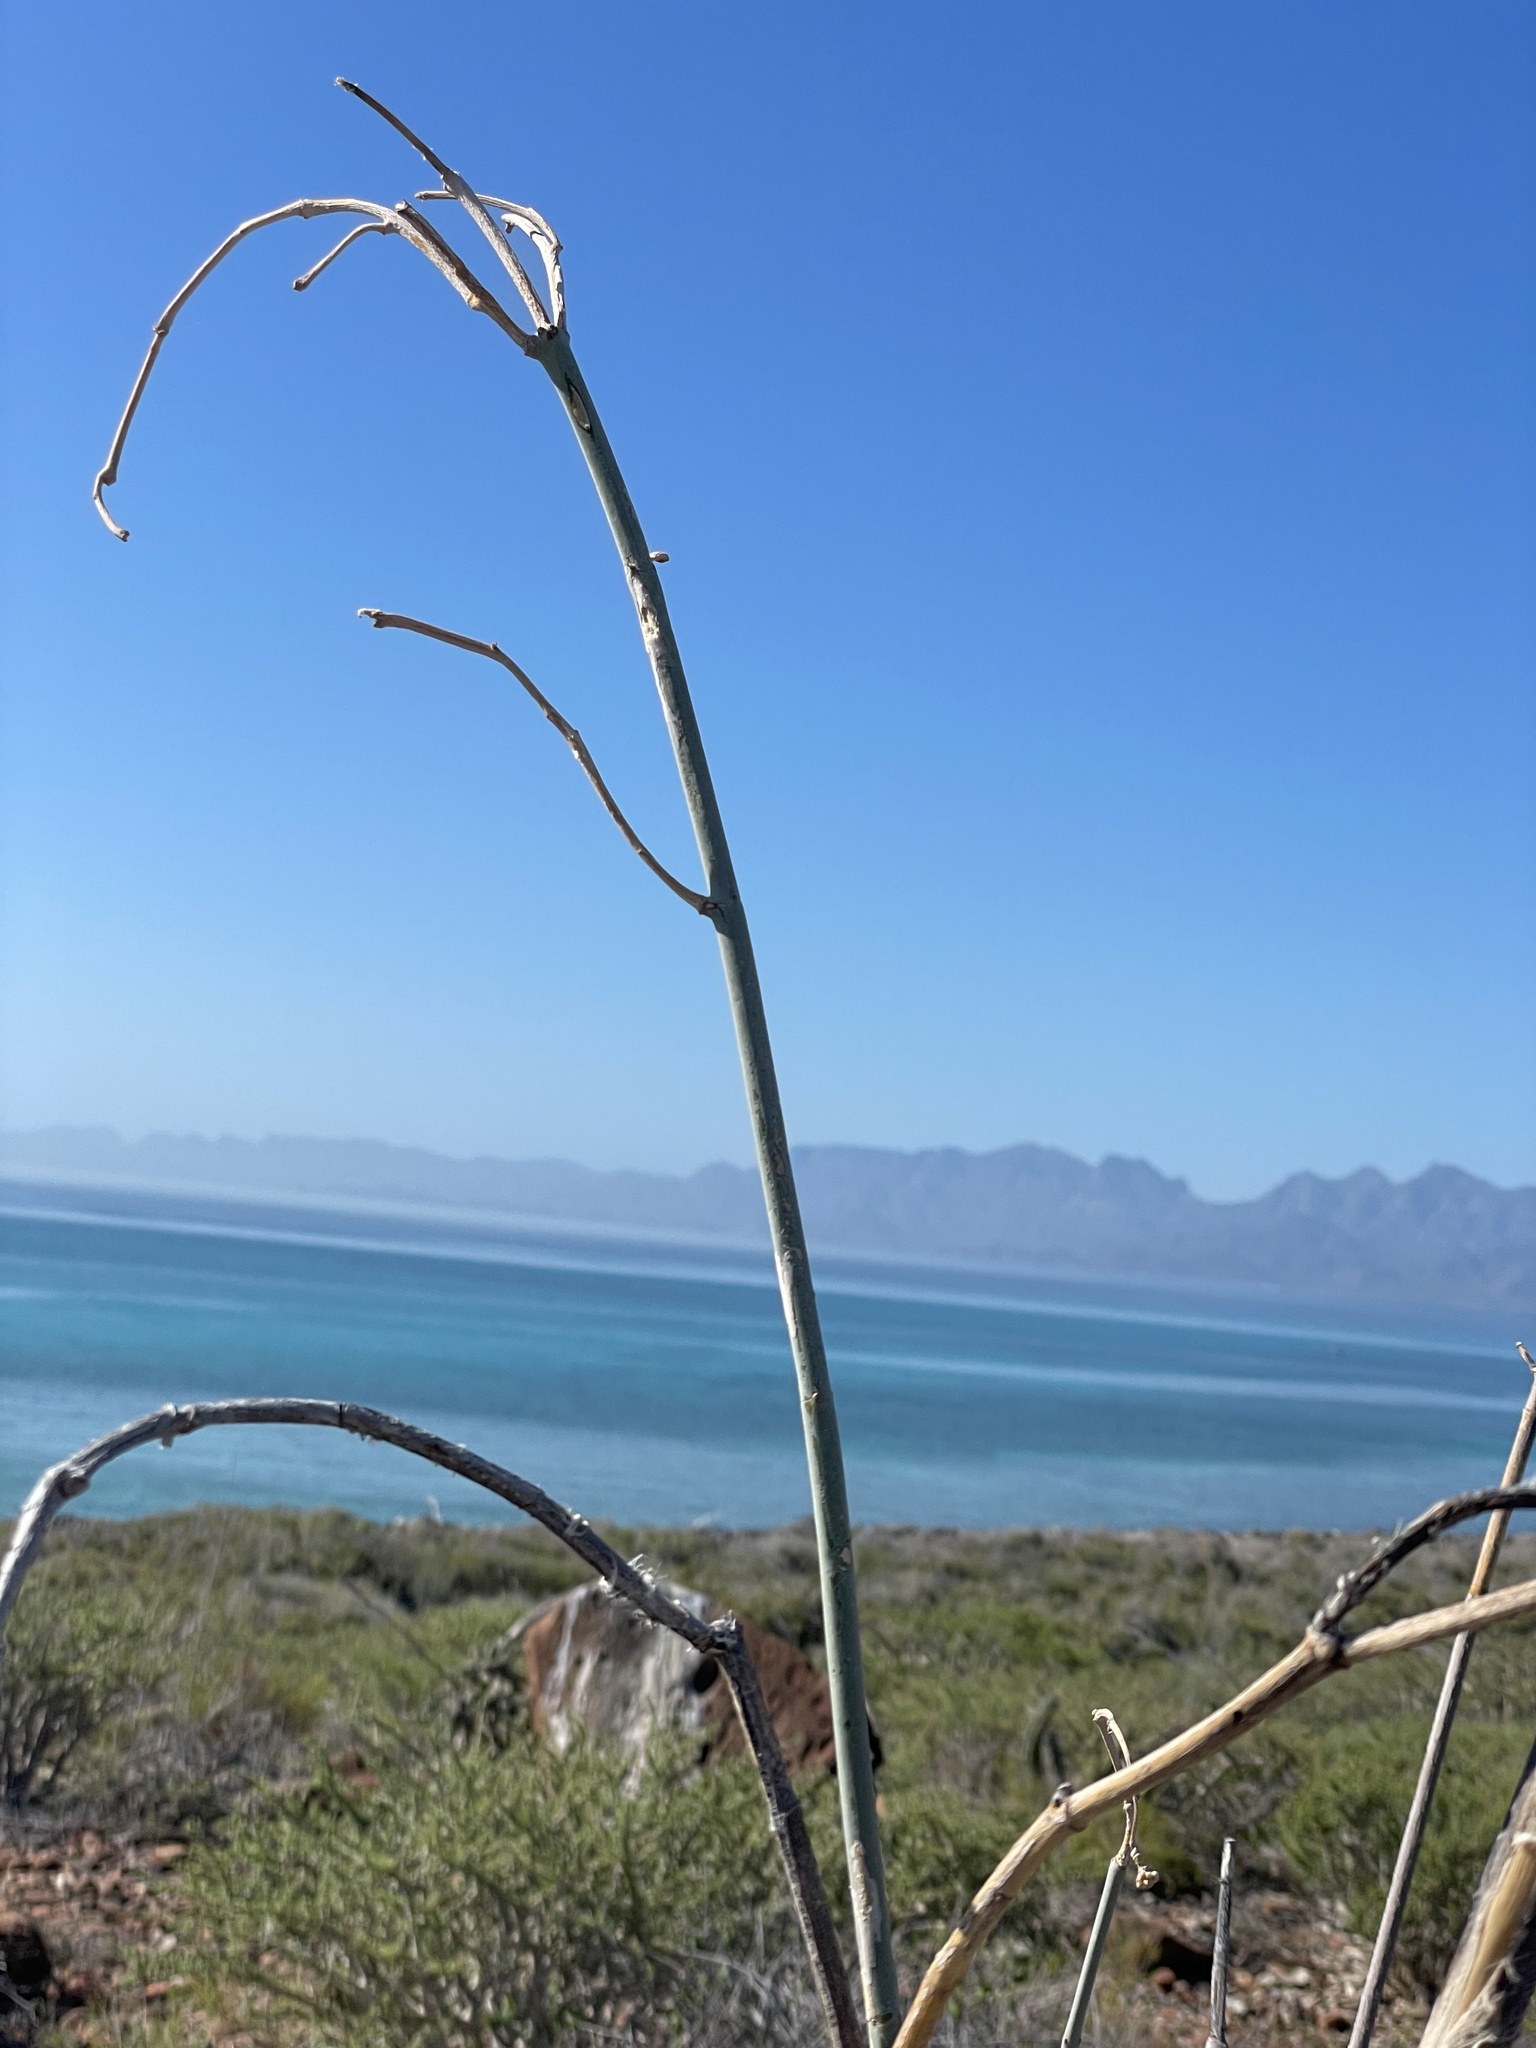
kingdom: Plantae
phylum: Tracheophyta
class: Magnoliopsida
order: Gentianales
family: Apocynaceae
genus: Asclepias
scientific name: Asclepias albicans
